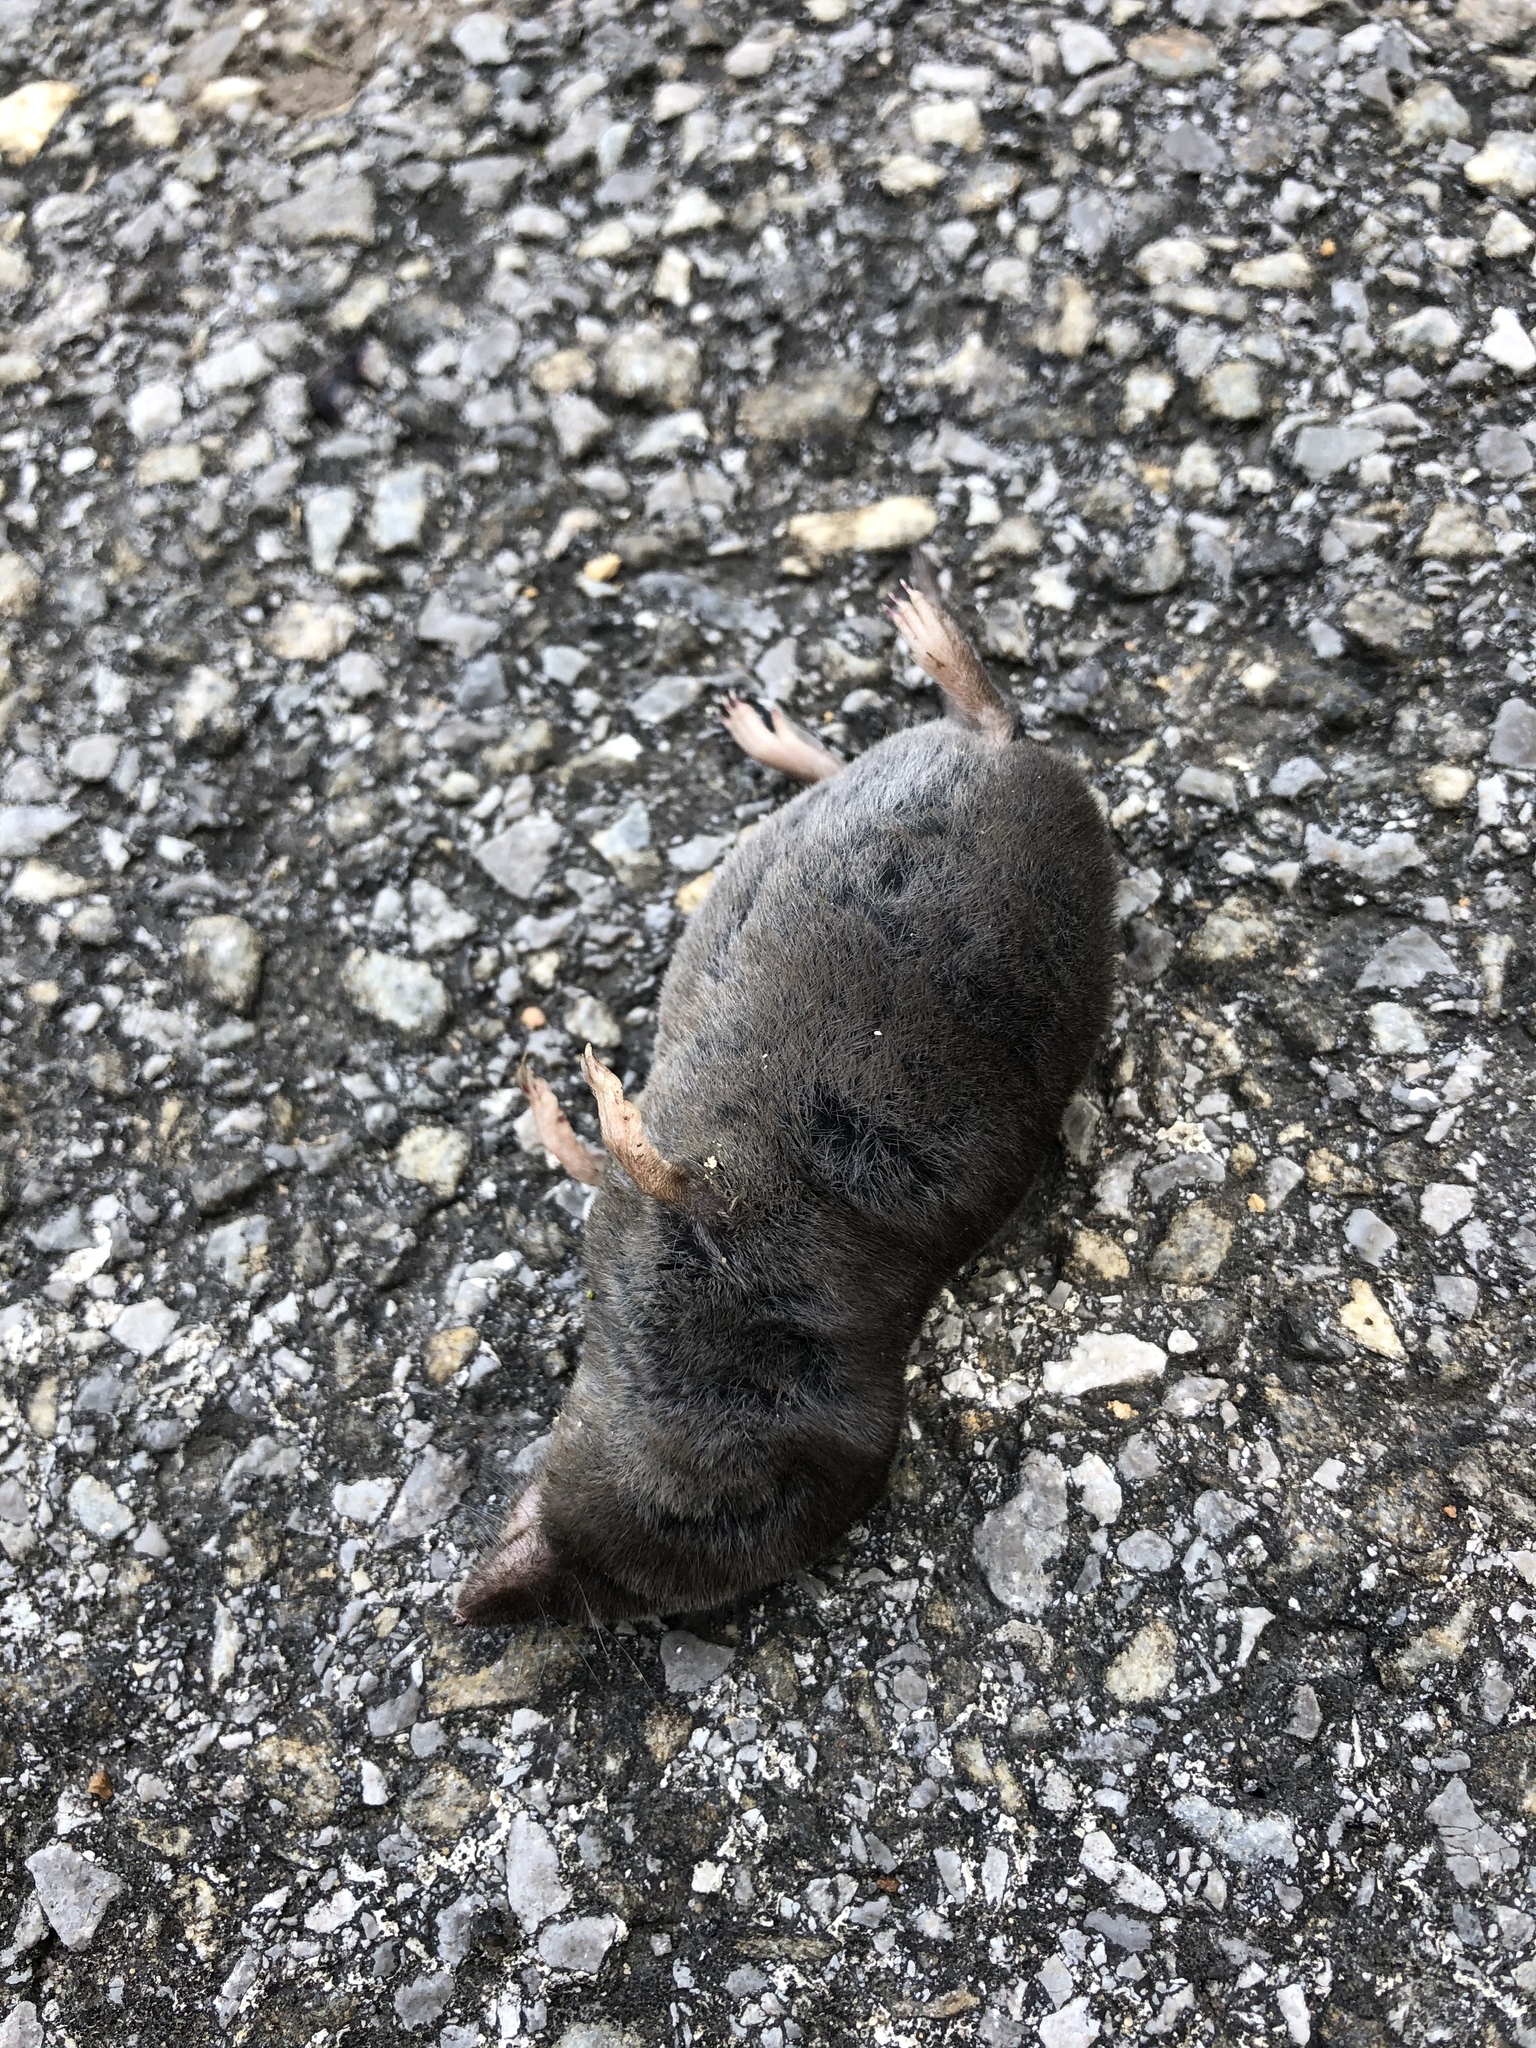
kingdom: Animalia
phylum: Chordata
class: Mammalia
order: Soricomorpha
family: Soricidae
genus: Blarina
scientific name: Blarina brevicauda
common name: Northern short-tailed shrew
